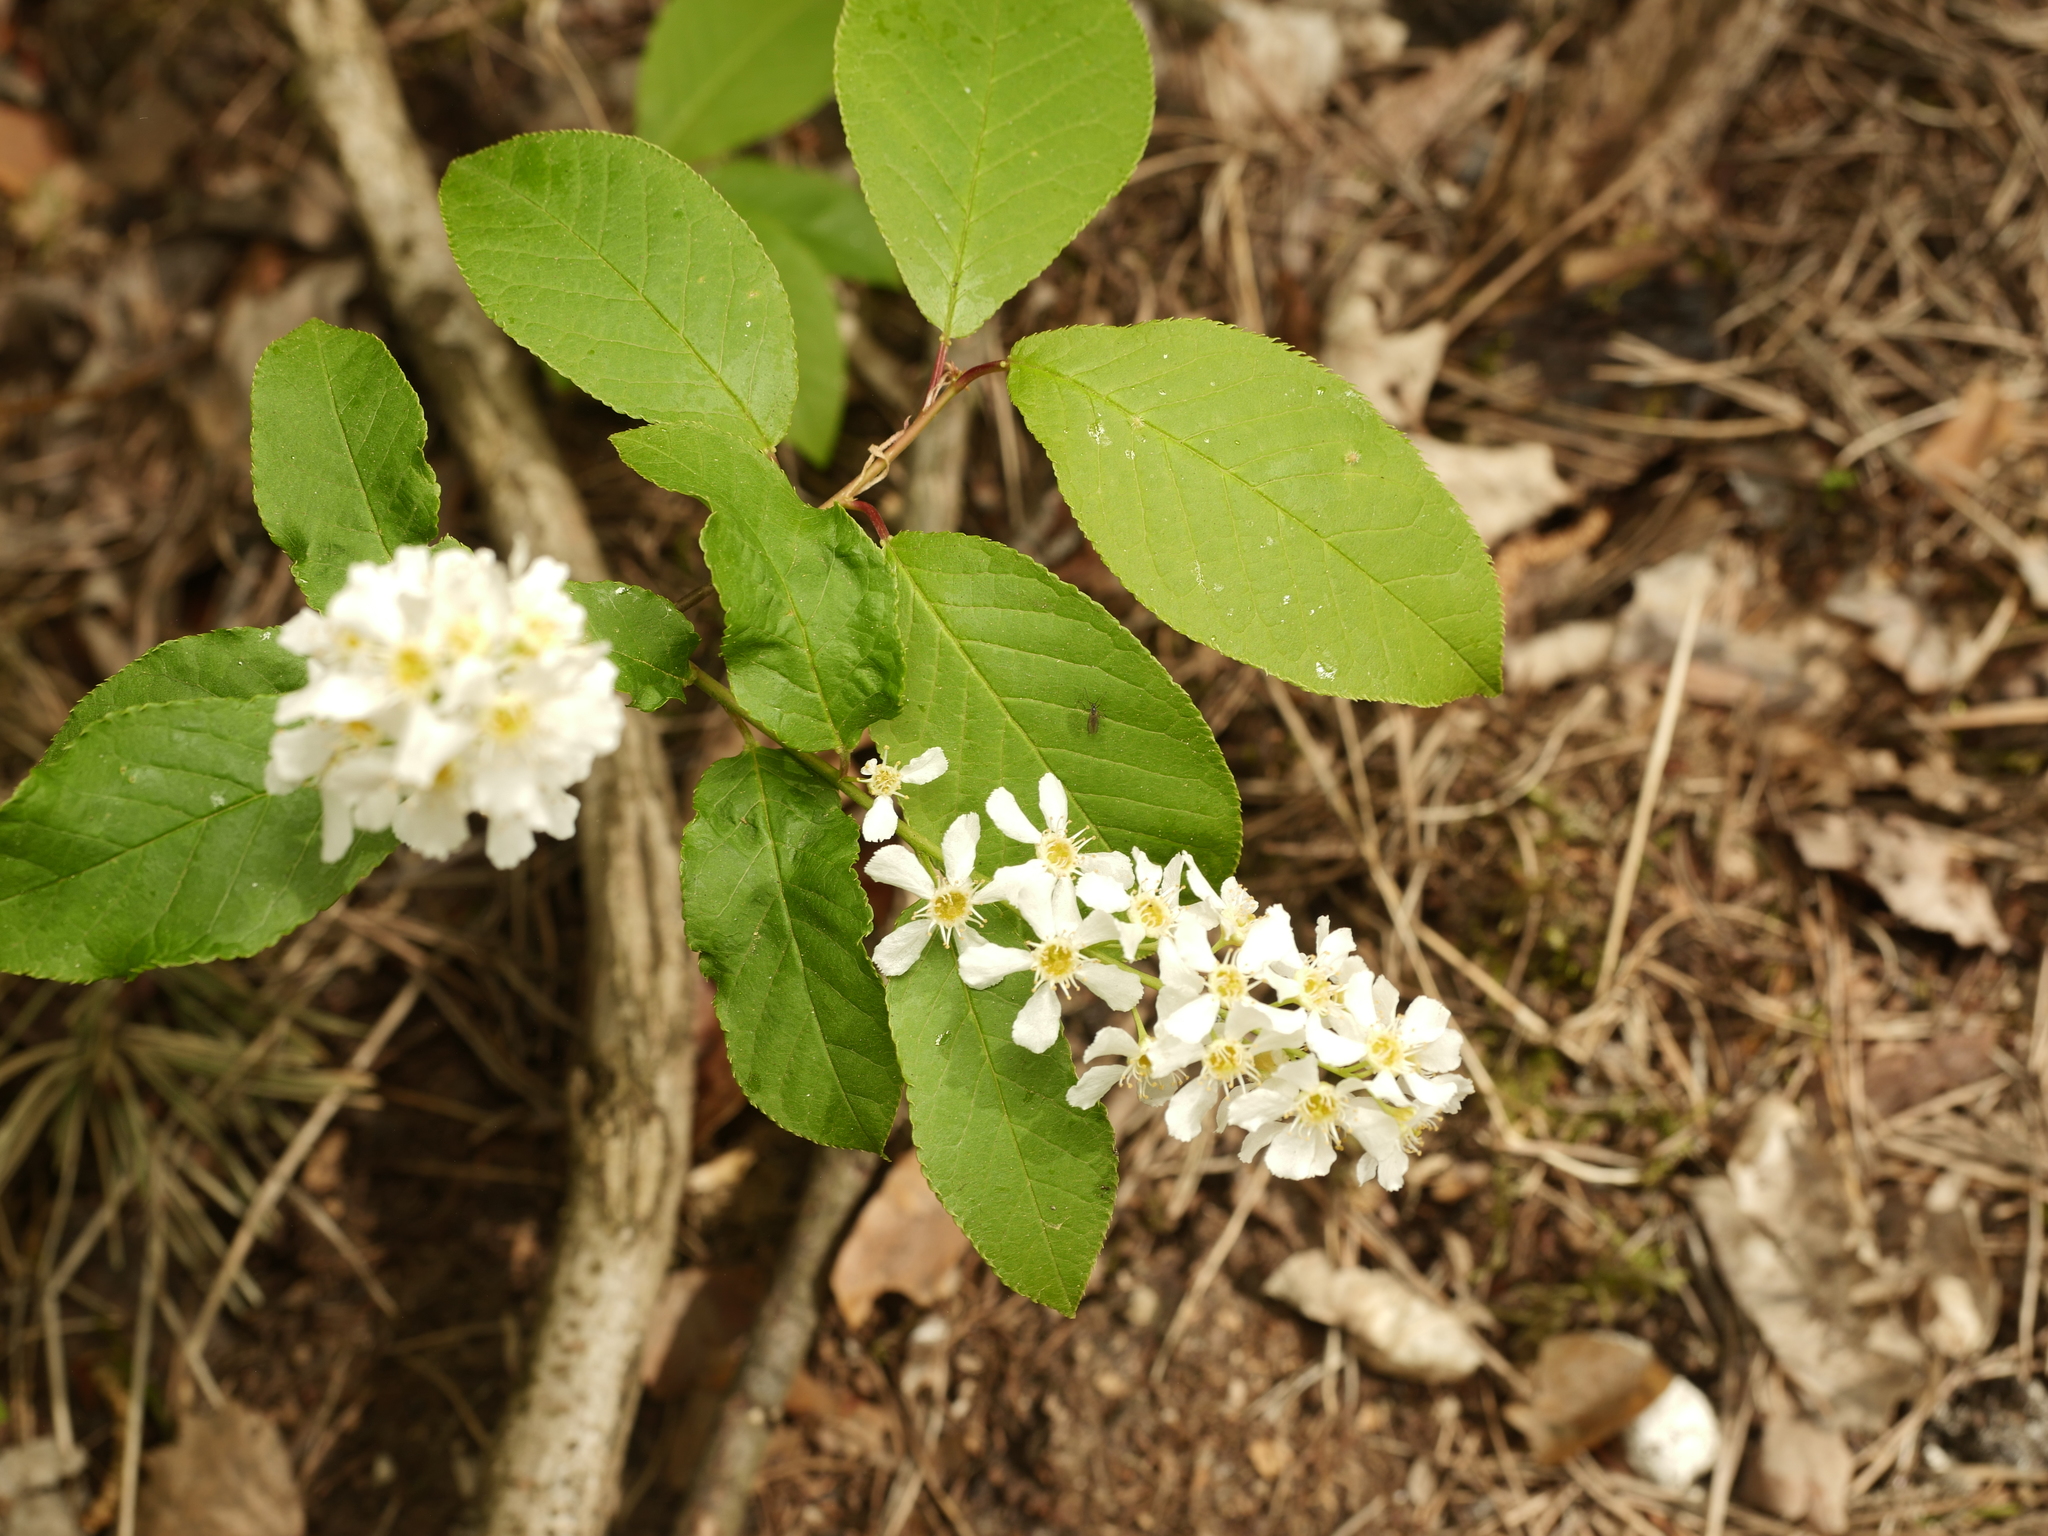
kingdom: Plantae
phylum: Tracheophyta
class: Magnoliopsida
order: Rosales
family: Rosaceae
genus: Prunus
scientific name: Prunus padus
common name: Bird cherry
